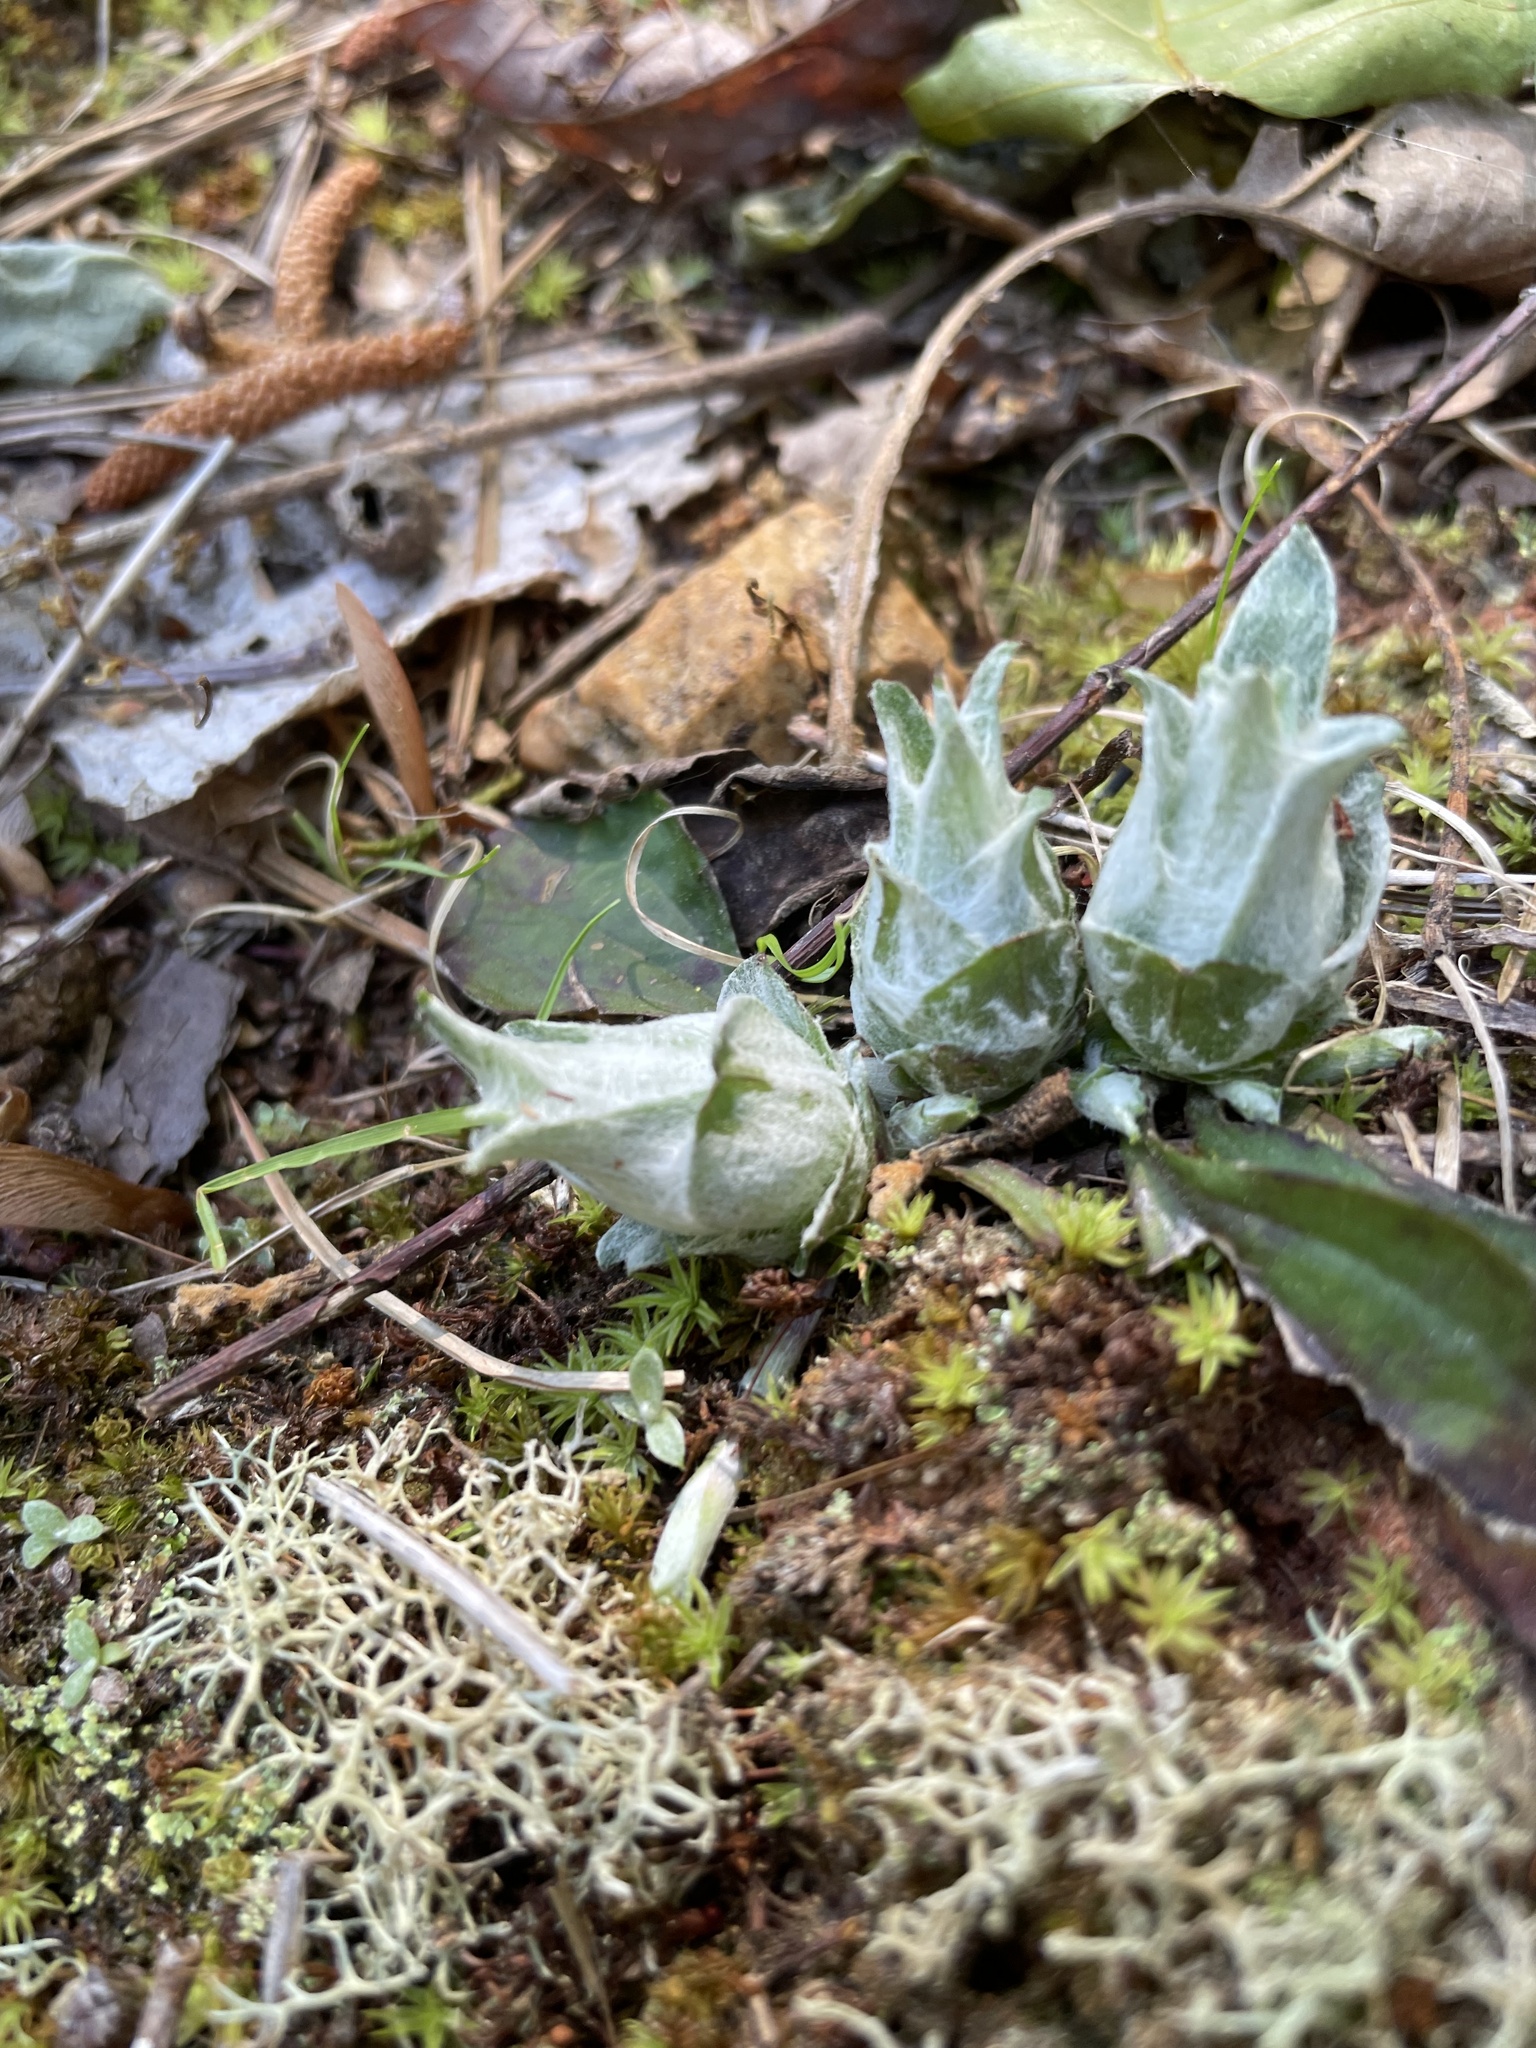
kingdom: Plantae
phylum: Tracheophyta
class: Magnoliopsida
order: Asterales
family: Asteraceae
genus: Antennaria
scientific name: Antennaria parlinii
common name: Parlin's pussytoes
